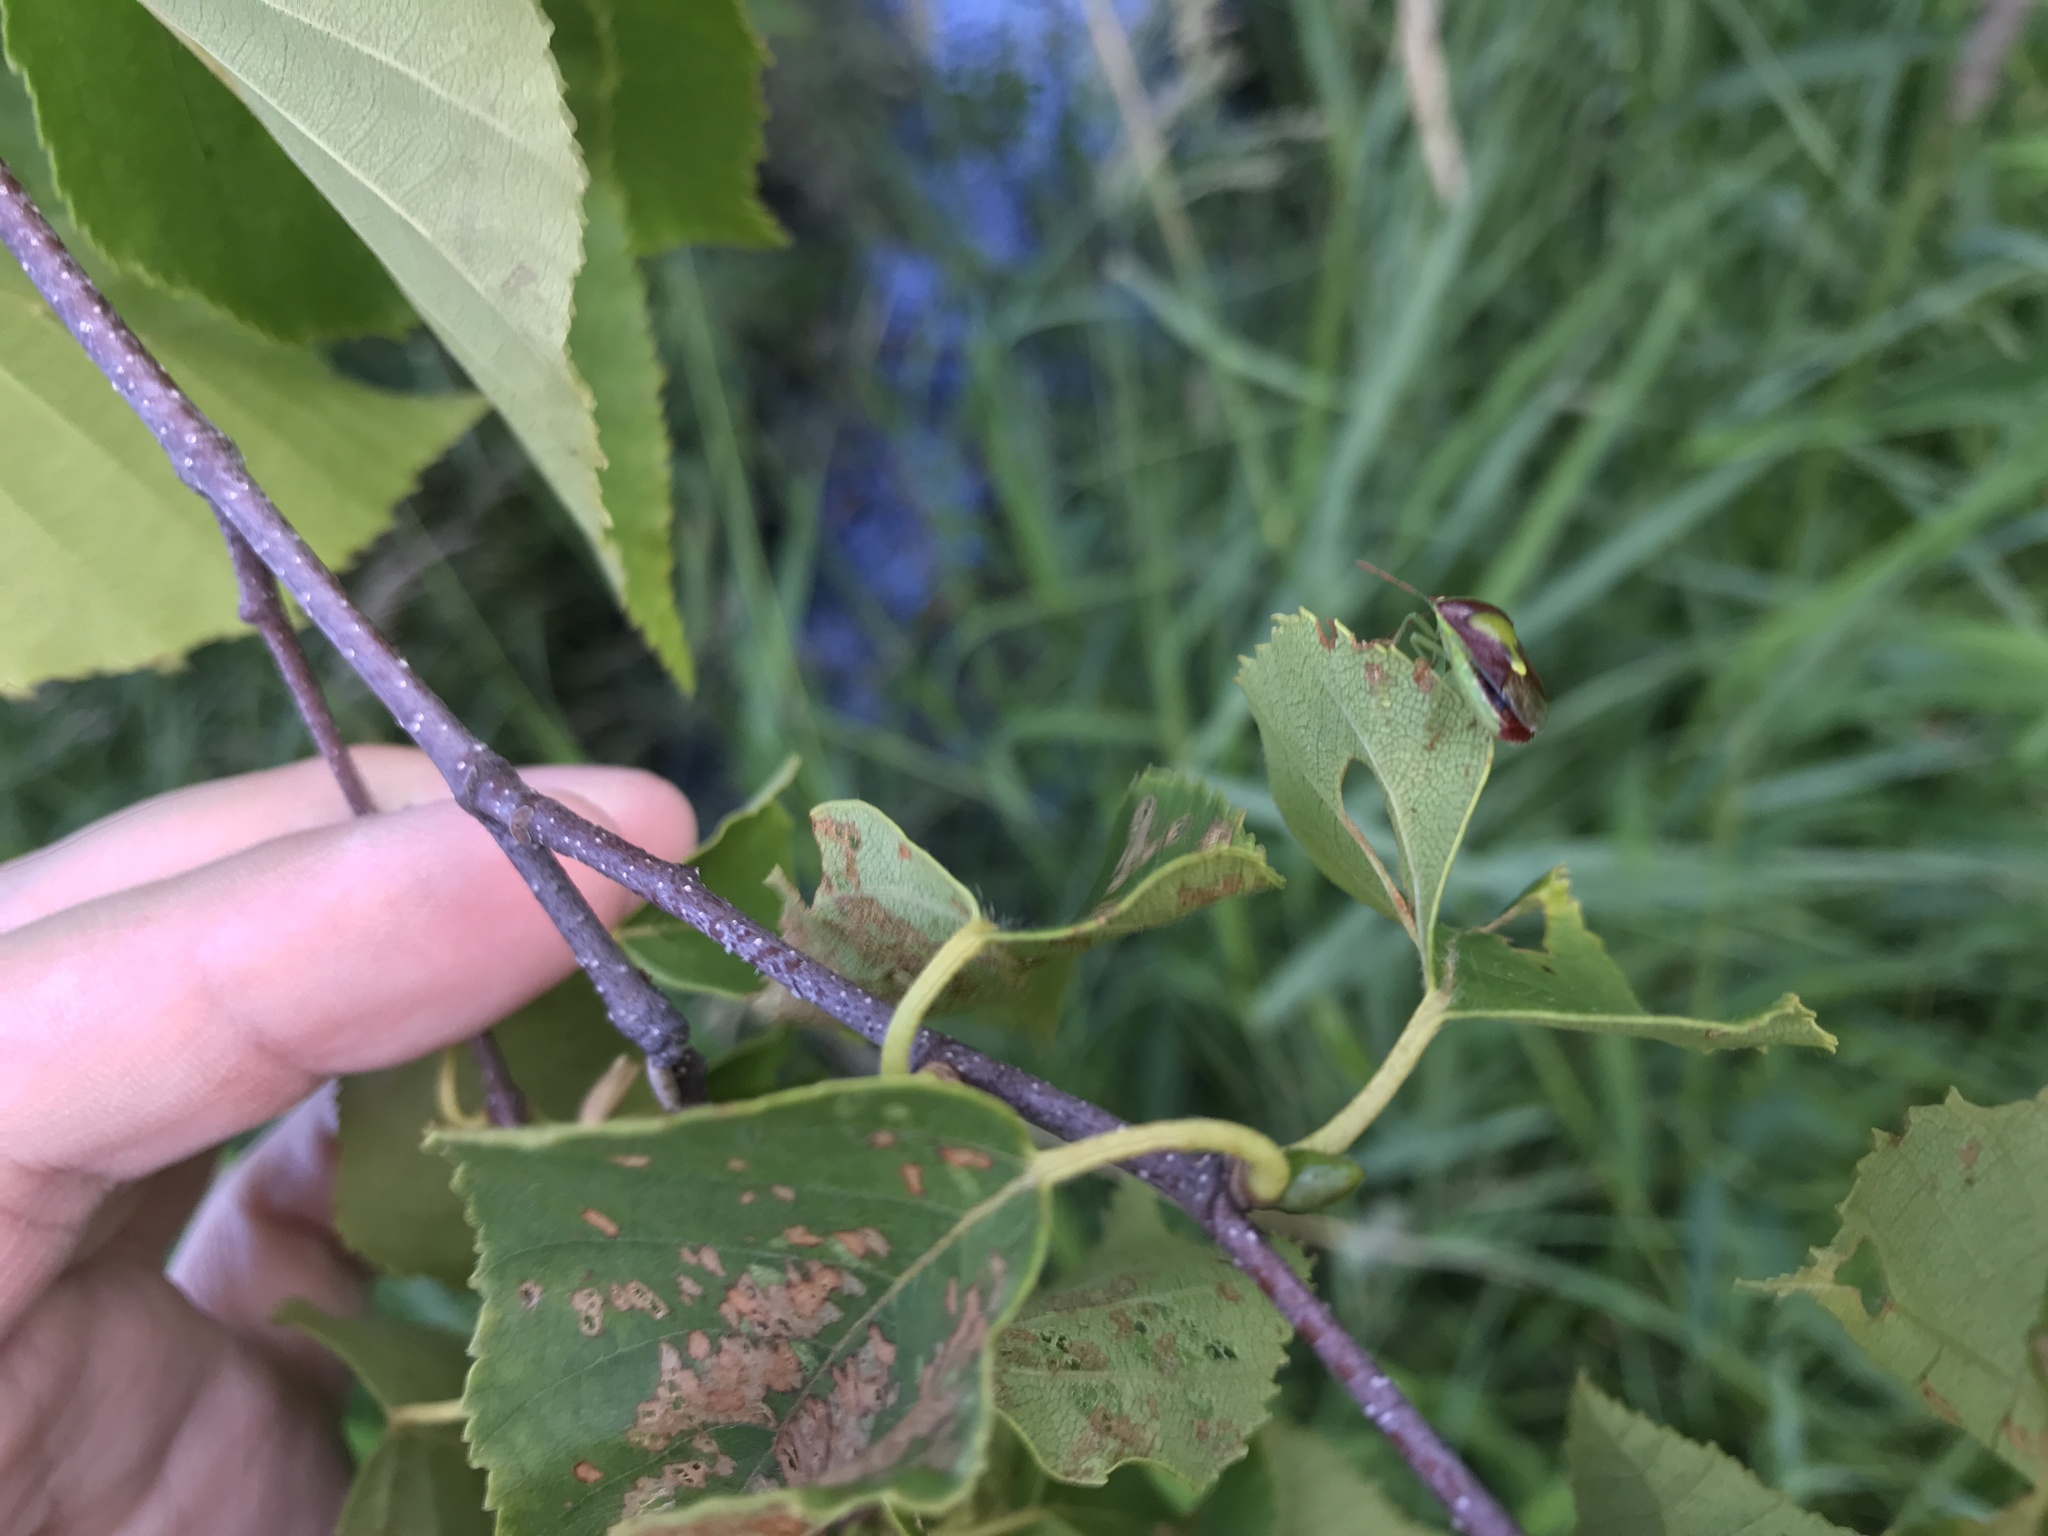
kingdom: Animalia
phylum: Arthropoda
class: Insecta
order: Hemiptera
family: Pentatomidae
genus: Banasa
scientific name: Banasa dimidiata
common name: Green burgundy stink bug
